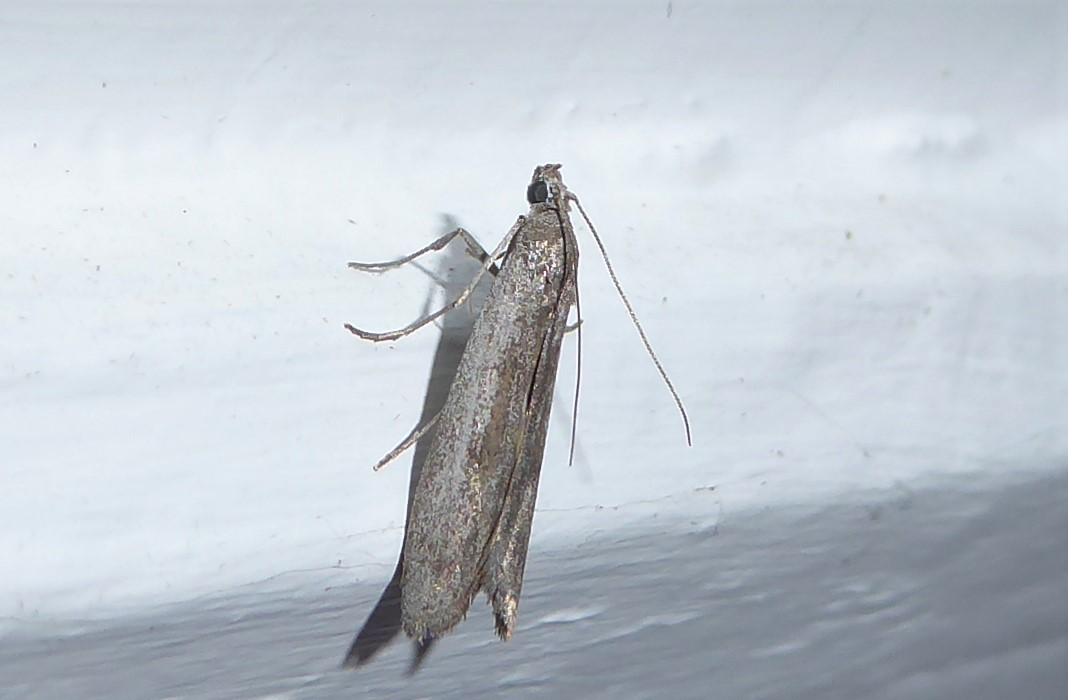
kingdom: Animalia
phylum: Arthropoda
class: Insecta
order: Lepidoptera
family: Pyralidae
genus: Homoeosoma
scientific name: Homoeosoma anaspila
